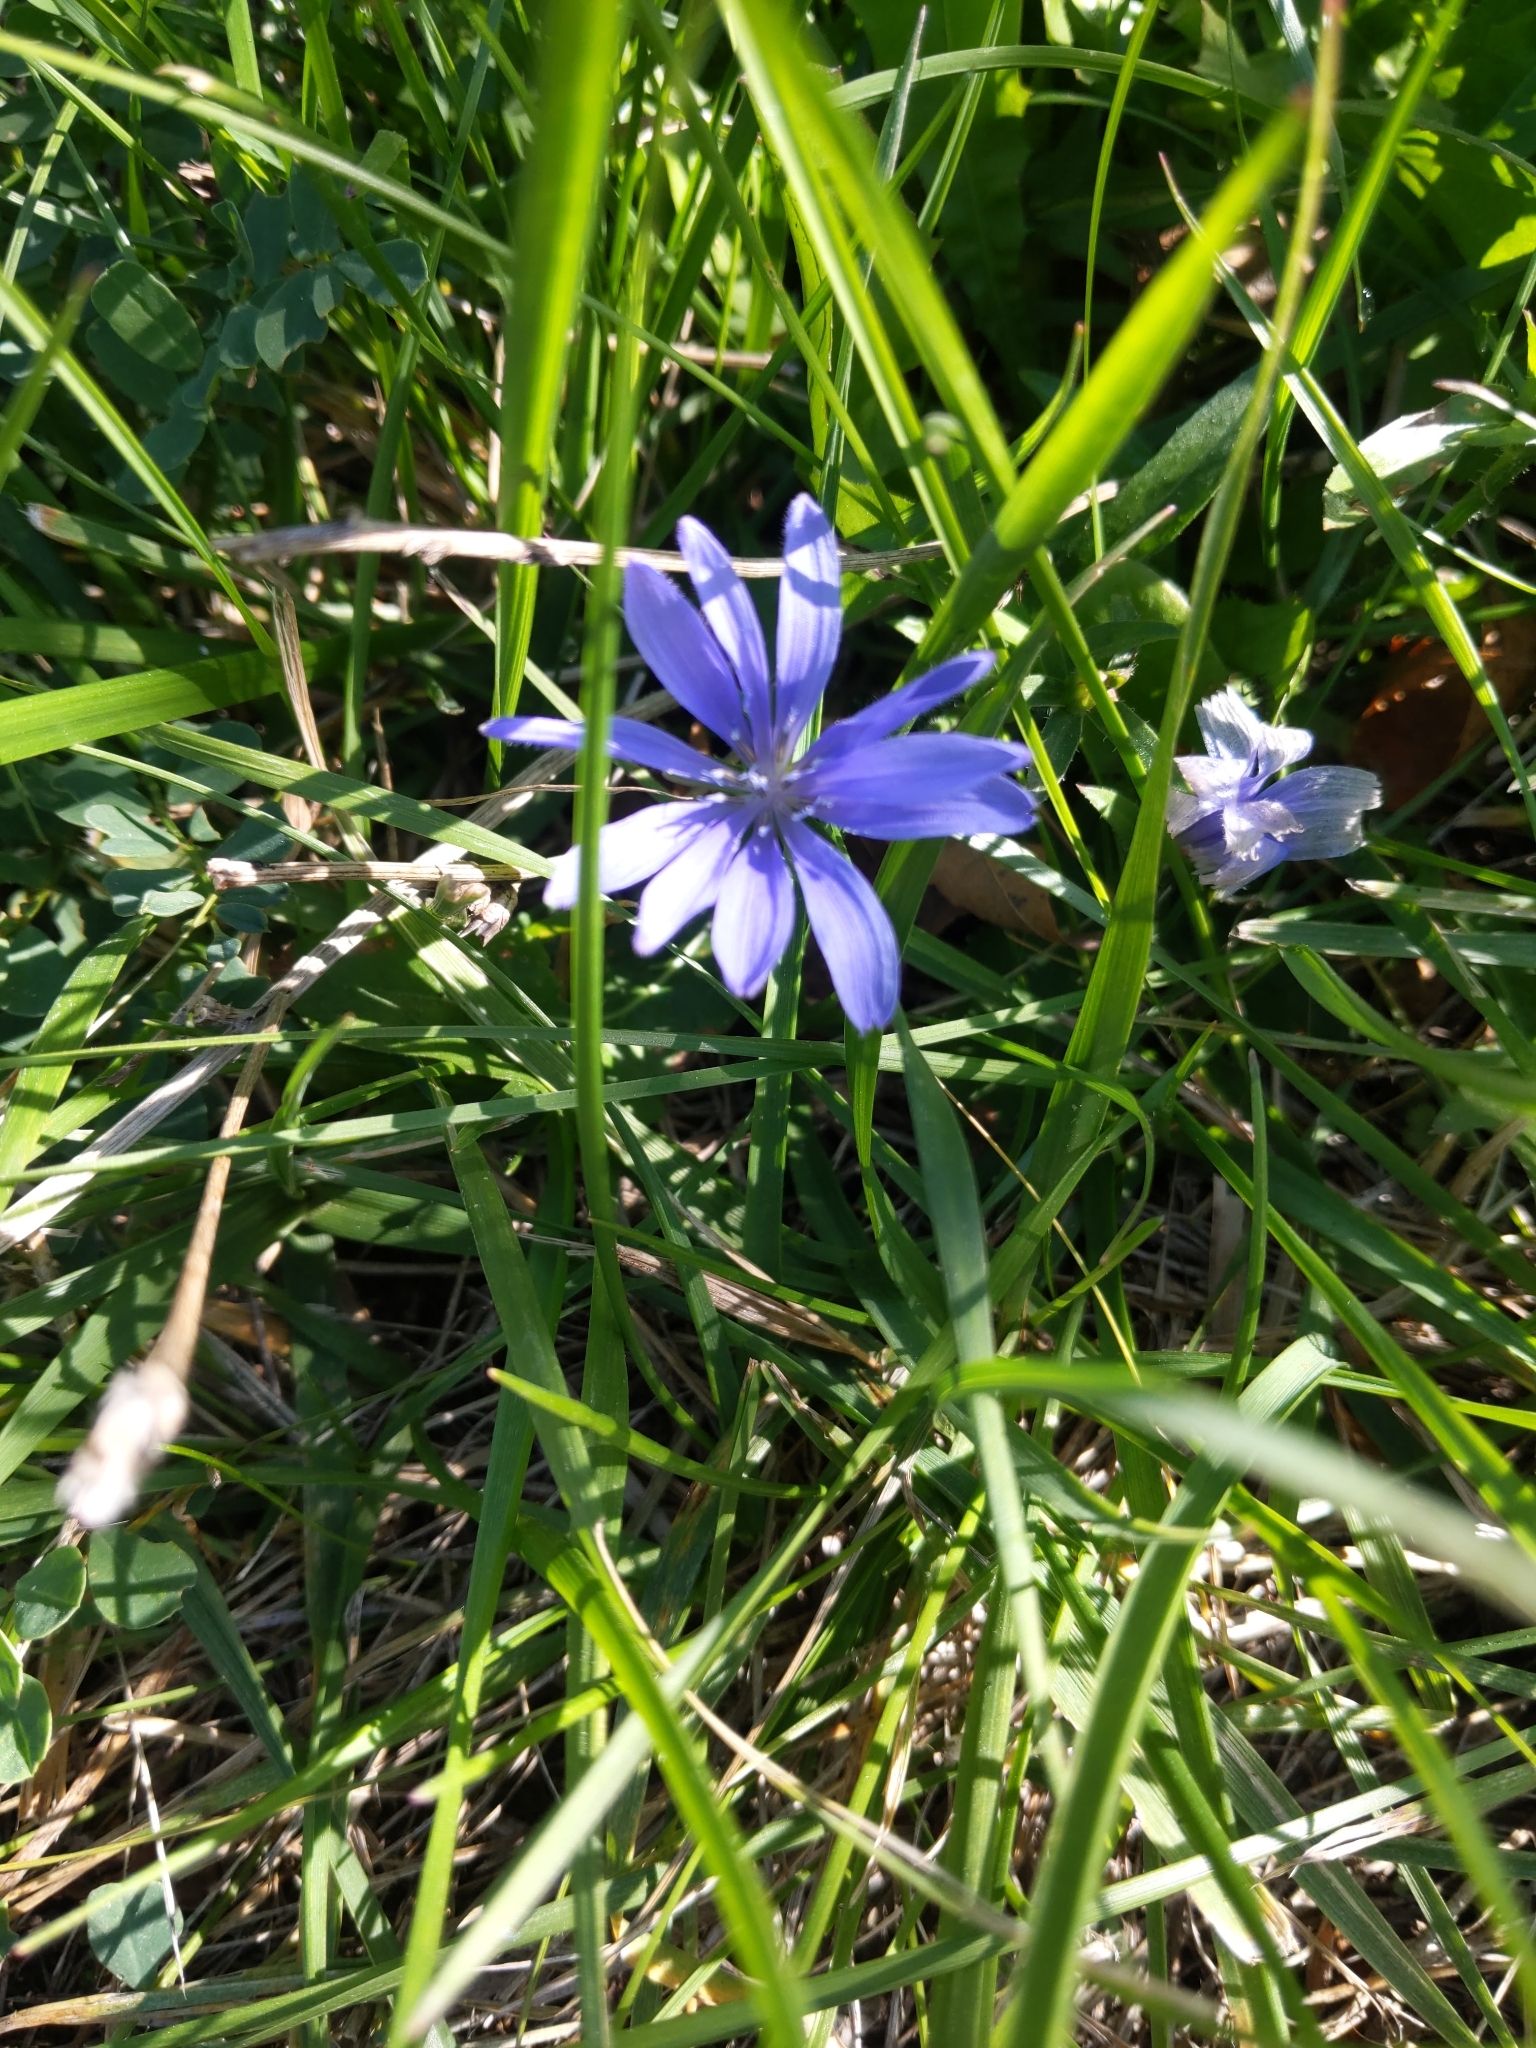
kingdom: Plantae
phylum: Tracheophyta
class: Magnoliopsida
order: Asterales
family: Asteraceae
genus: Cichorium
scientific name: Cichorium intybus
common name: Chicory
